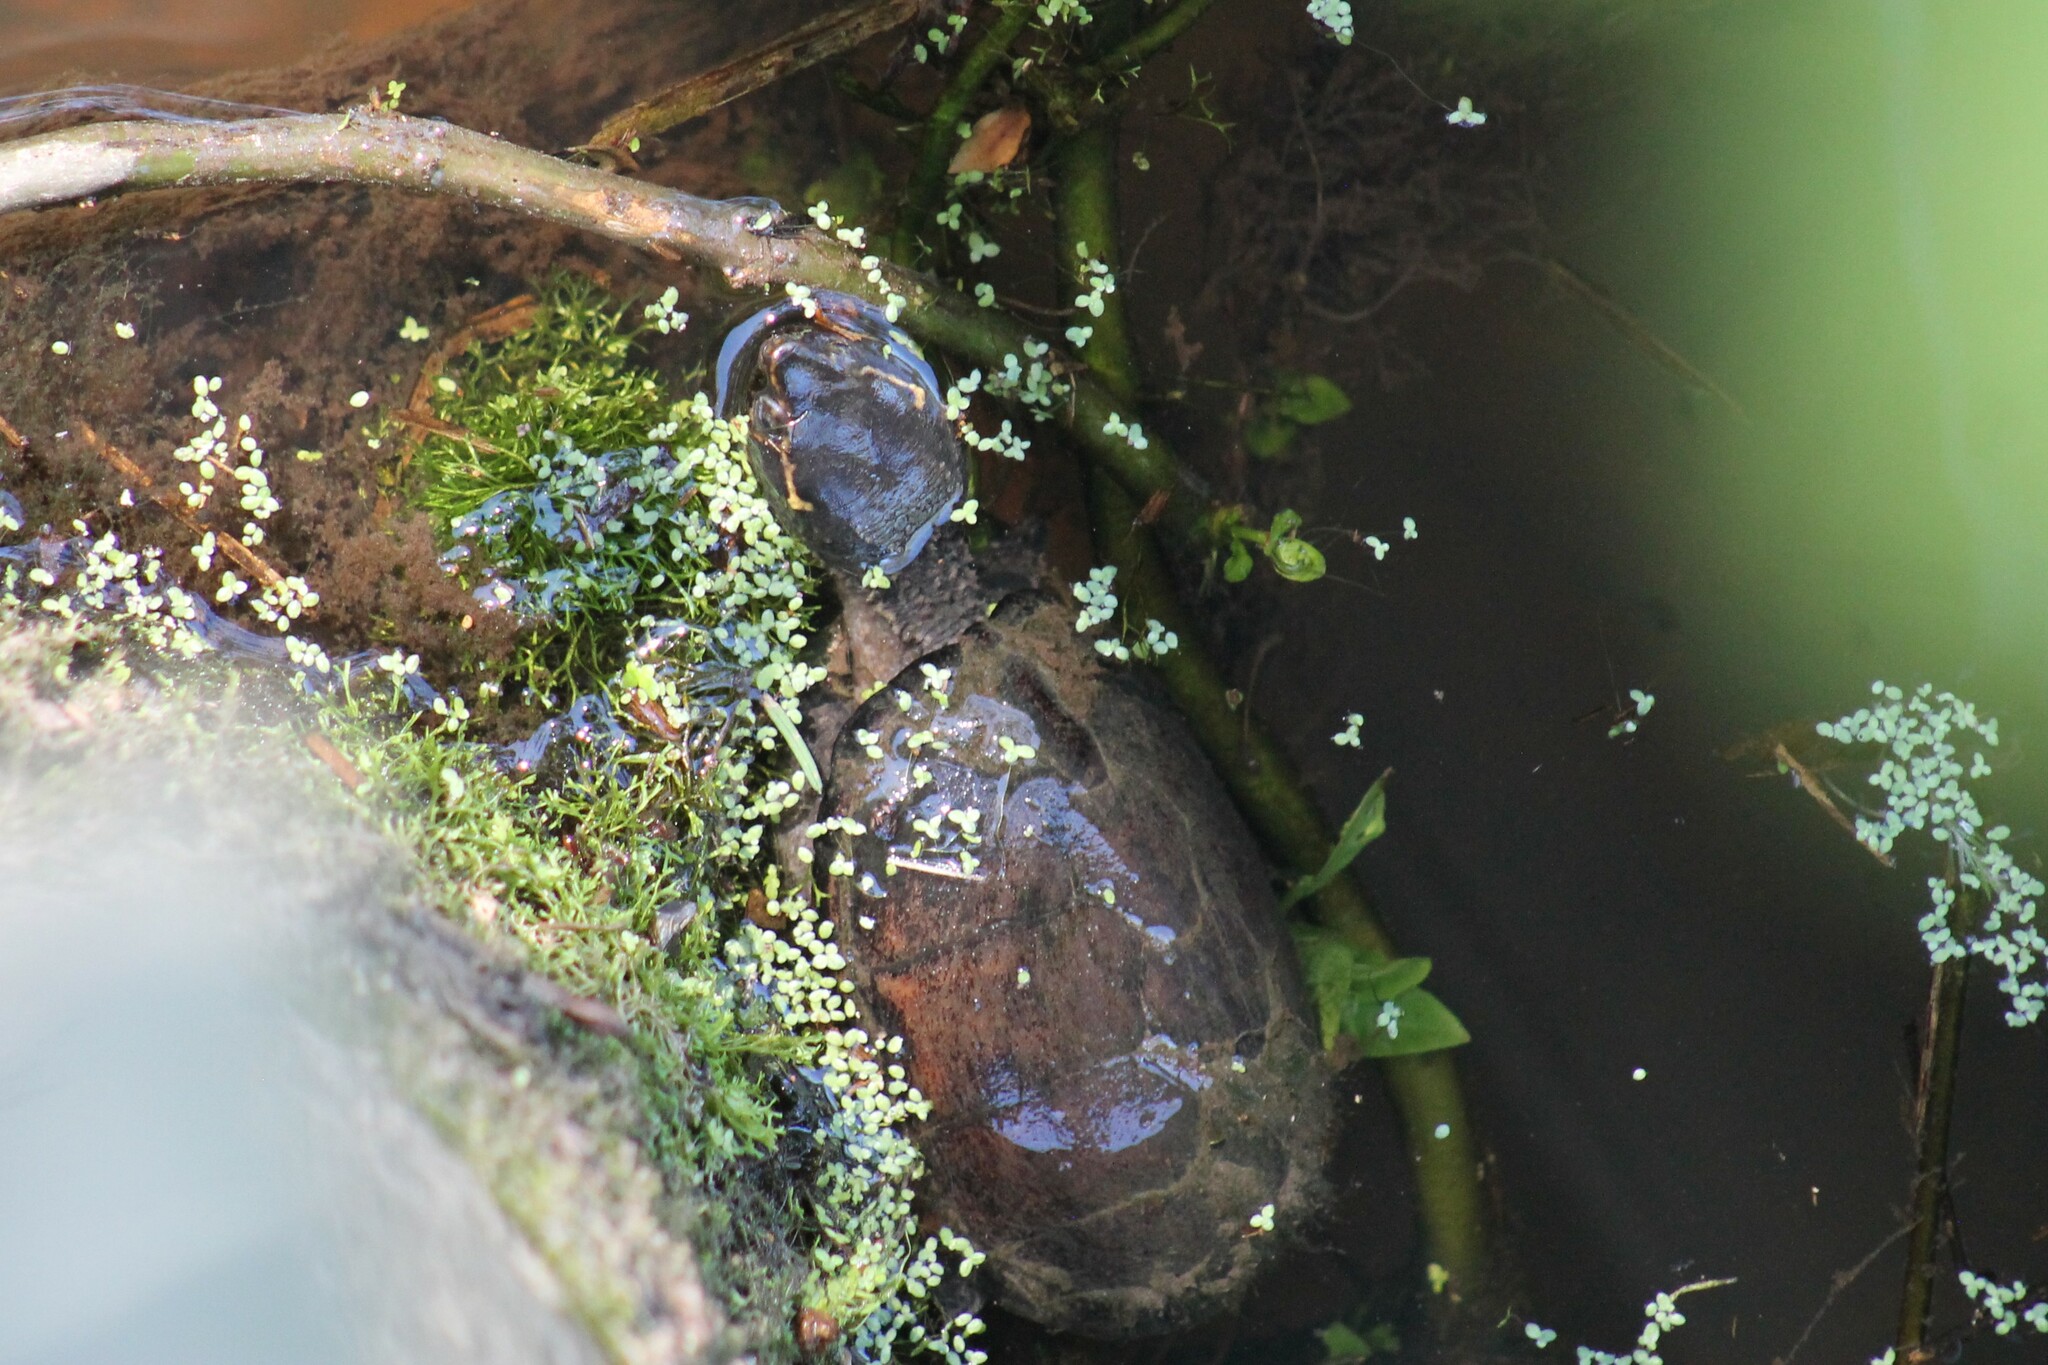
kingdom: Animalia
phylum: Chordata
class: Testudines
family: Kinosternidae
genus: Sternotherus
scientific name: Sternotherus odoratus
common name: Common musk turtle
